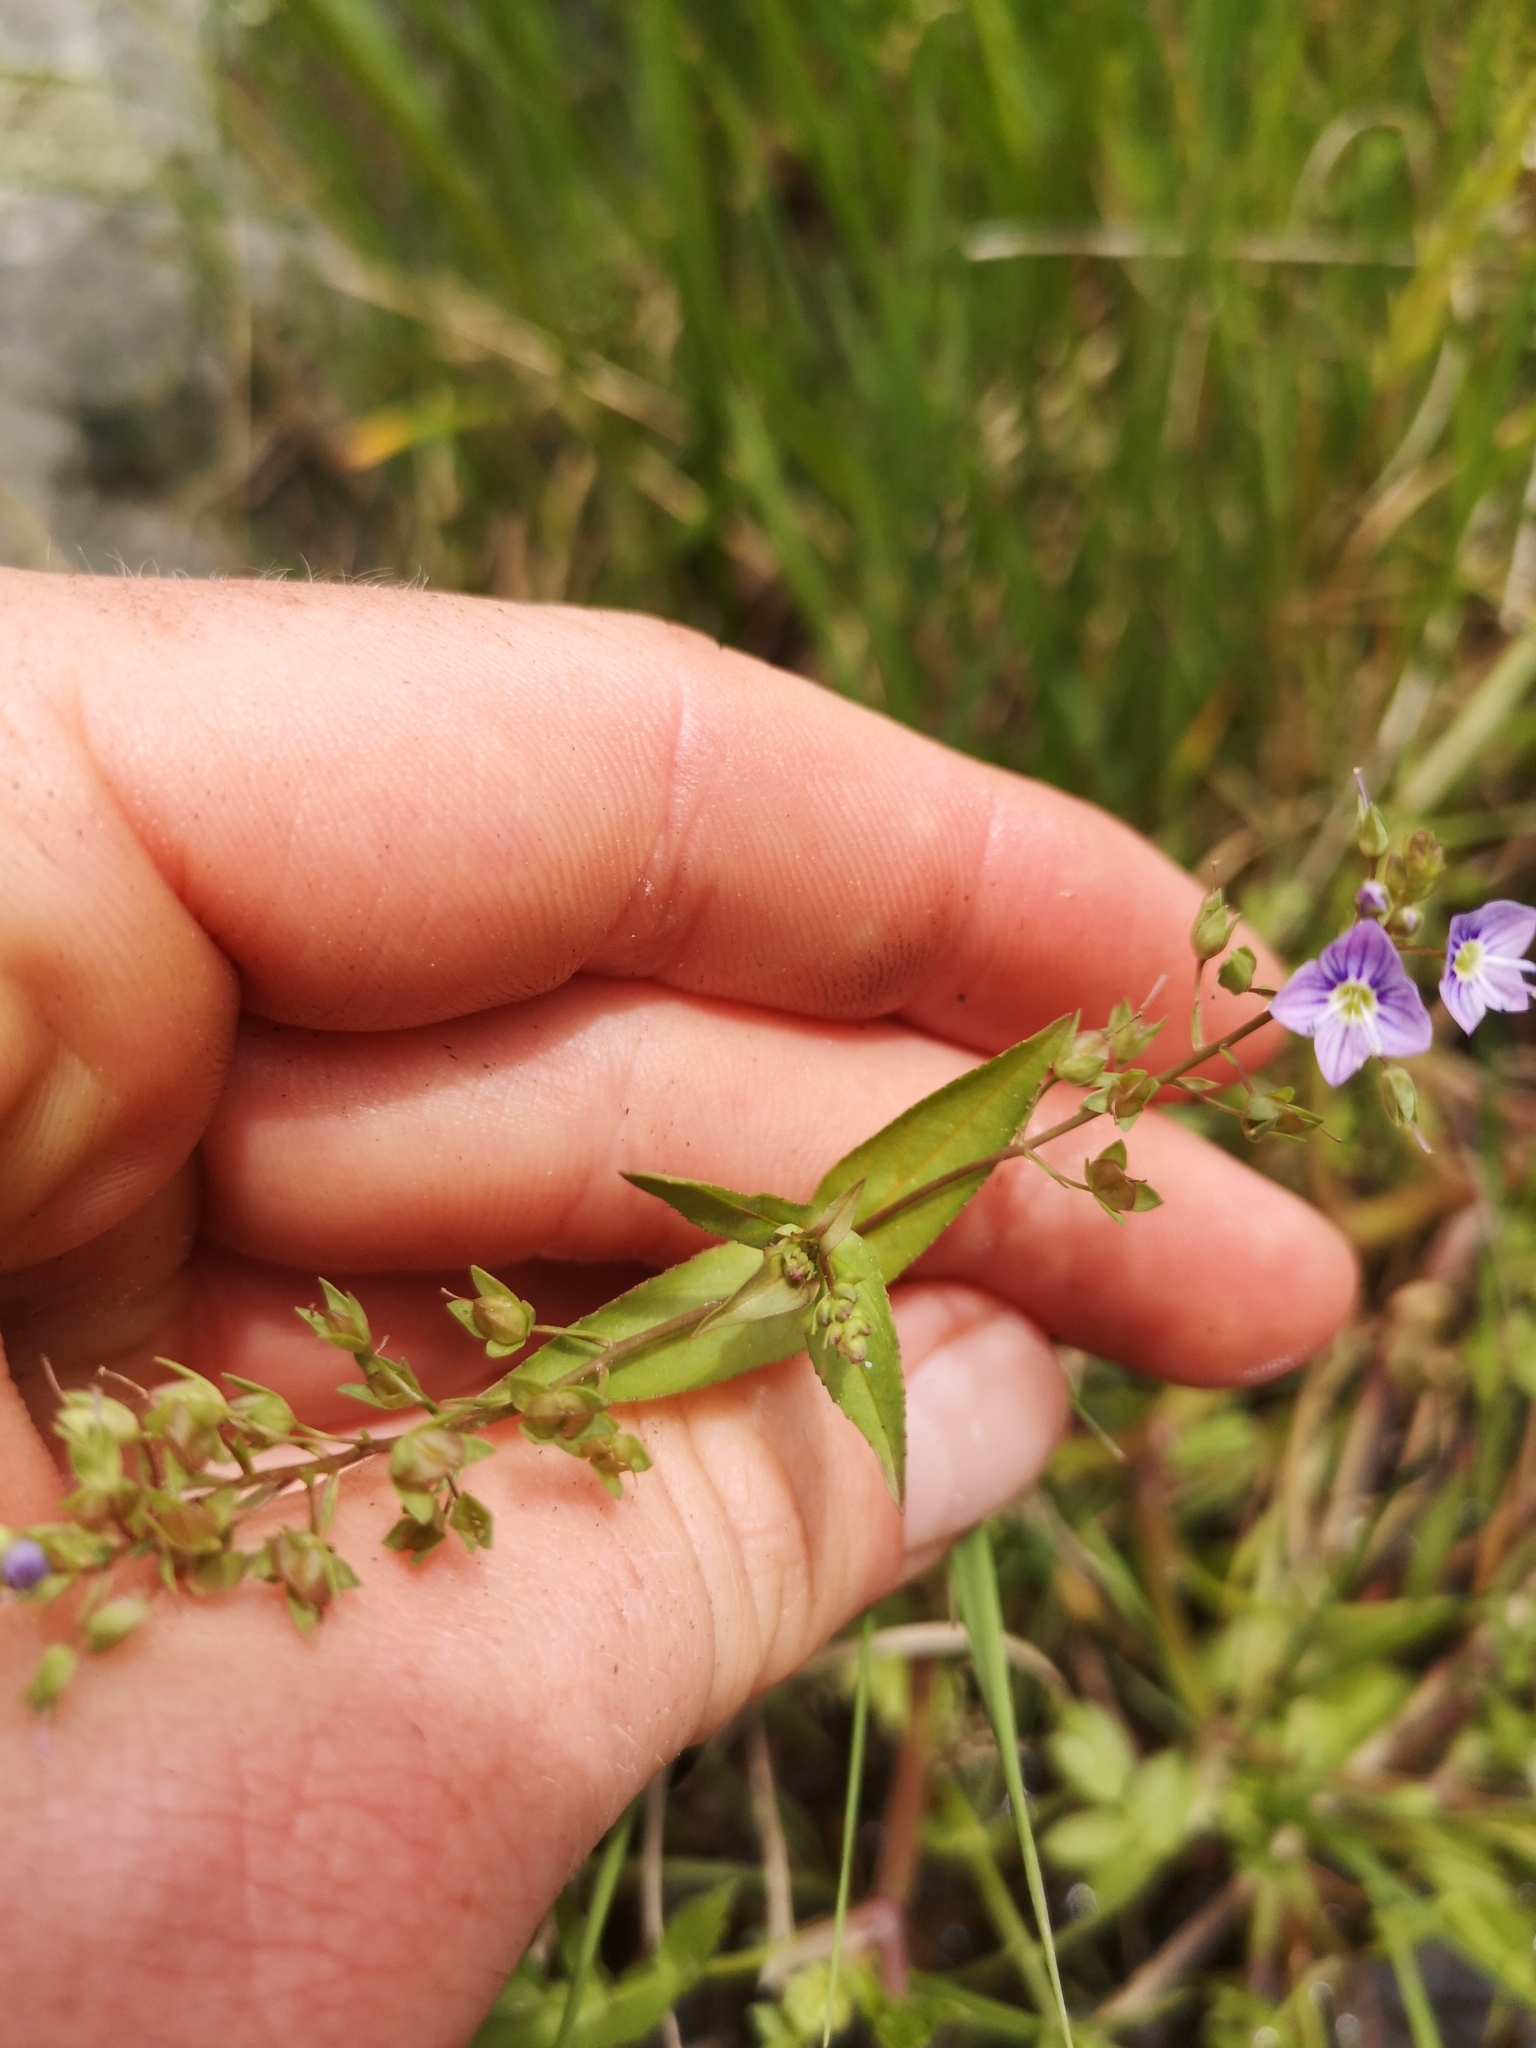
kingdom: Plantae
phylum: Tracheophyta
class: Magnoliopsida
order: Lamiales
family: Plantaginaceae
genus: Veronica
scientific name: Veronica anagallis-aquatica
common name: Water speedwell
